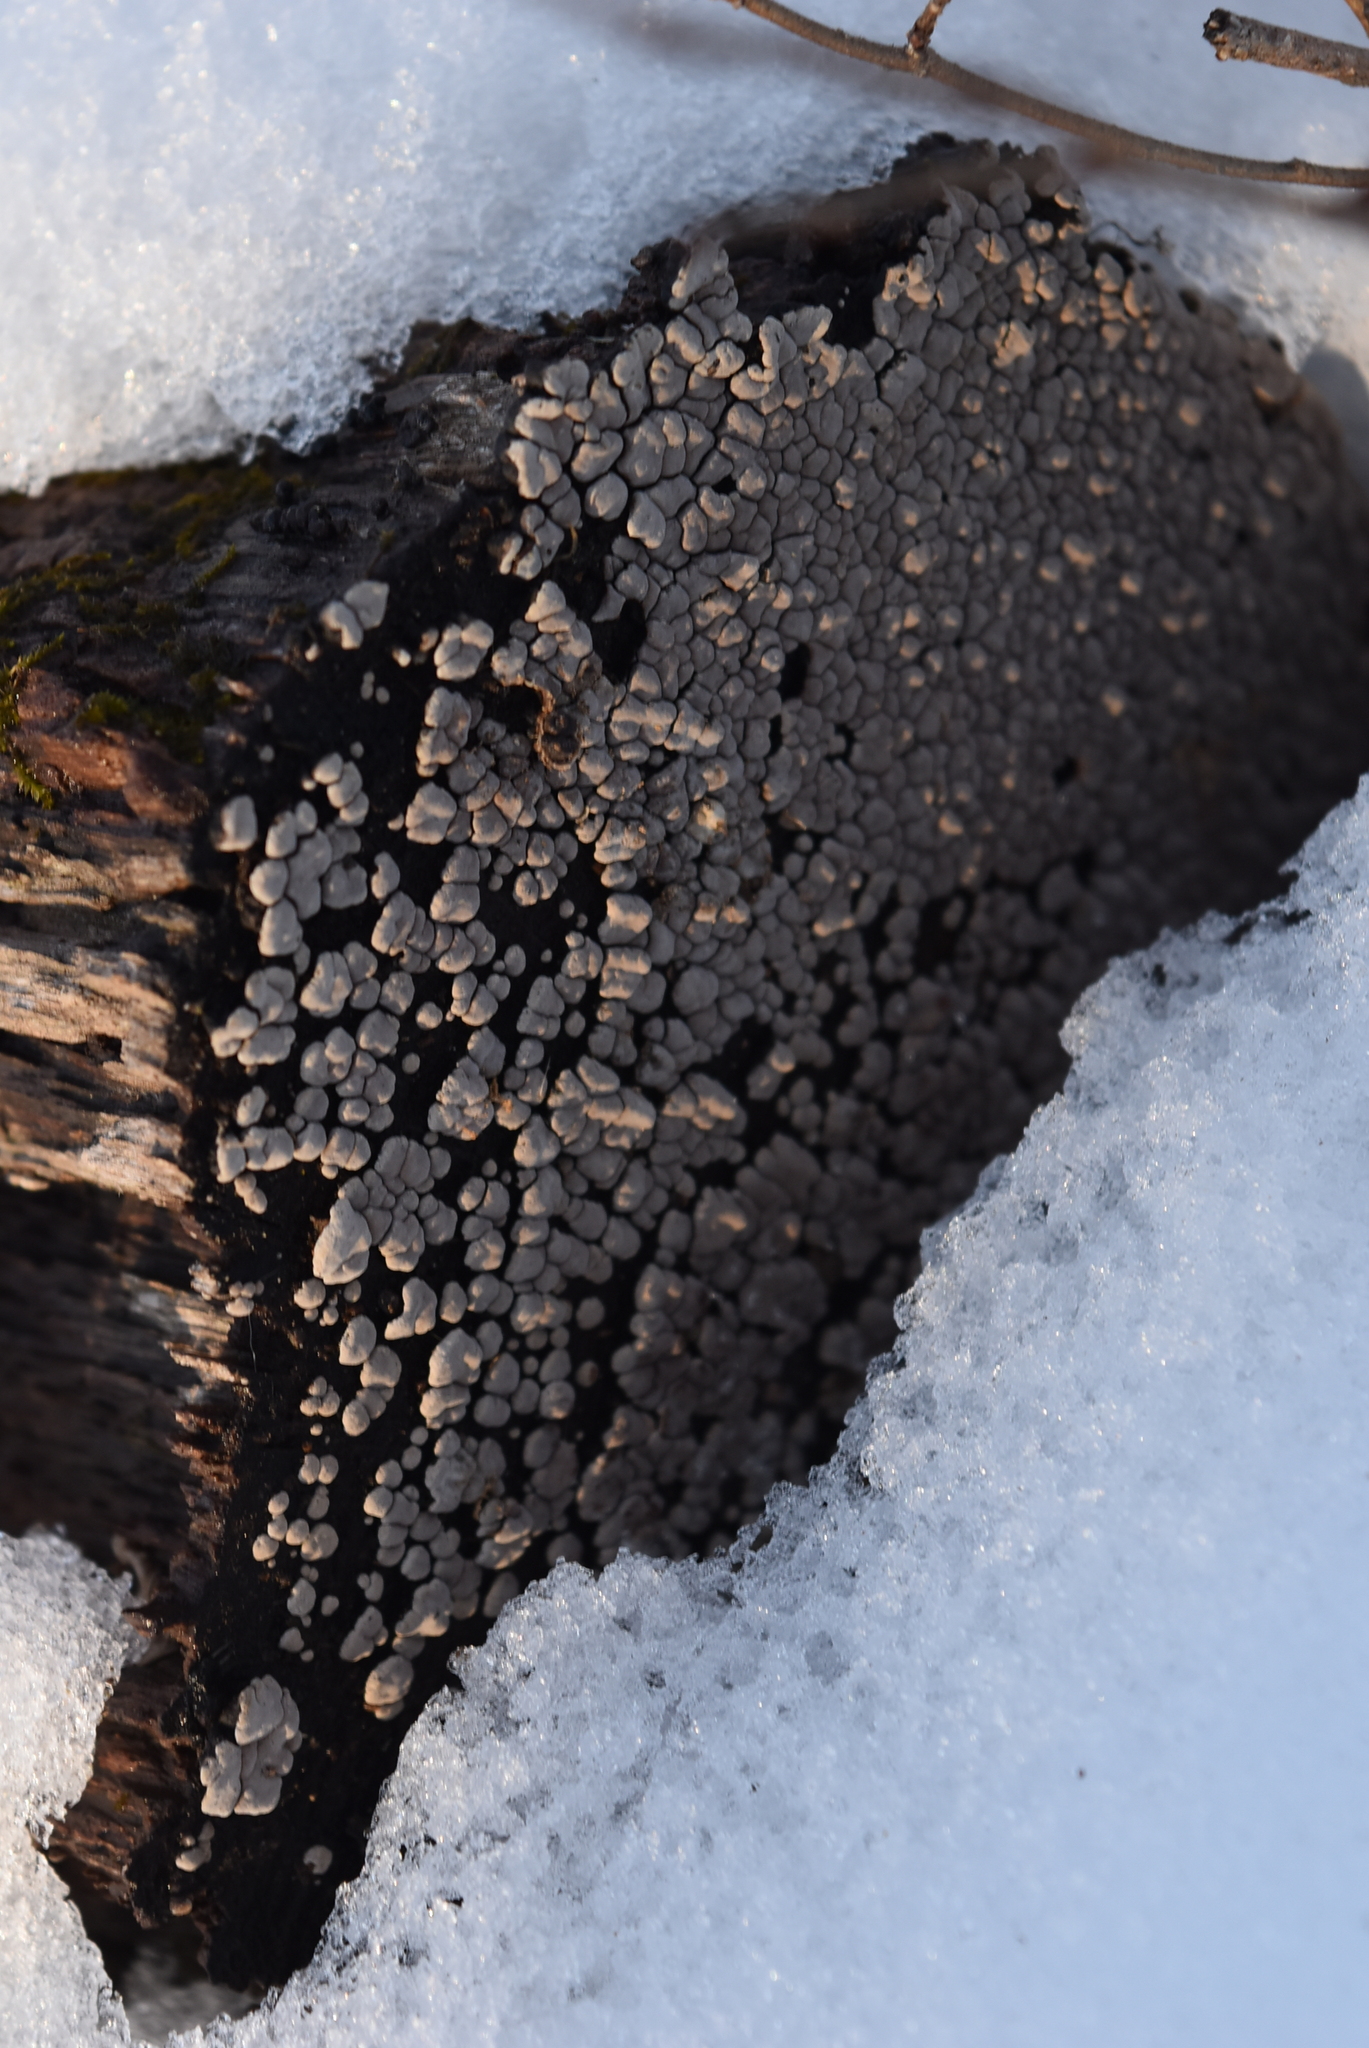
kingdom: Fungi
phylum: Basidiomycota
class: Agaricomycetes
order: Russulales
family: Stereaceae
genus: Xylobolus
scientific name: Xylobolus frustulatus
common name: Ceramic parchment
